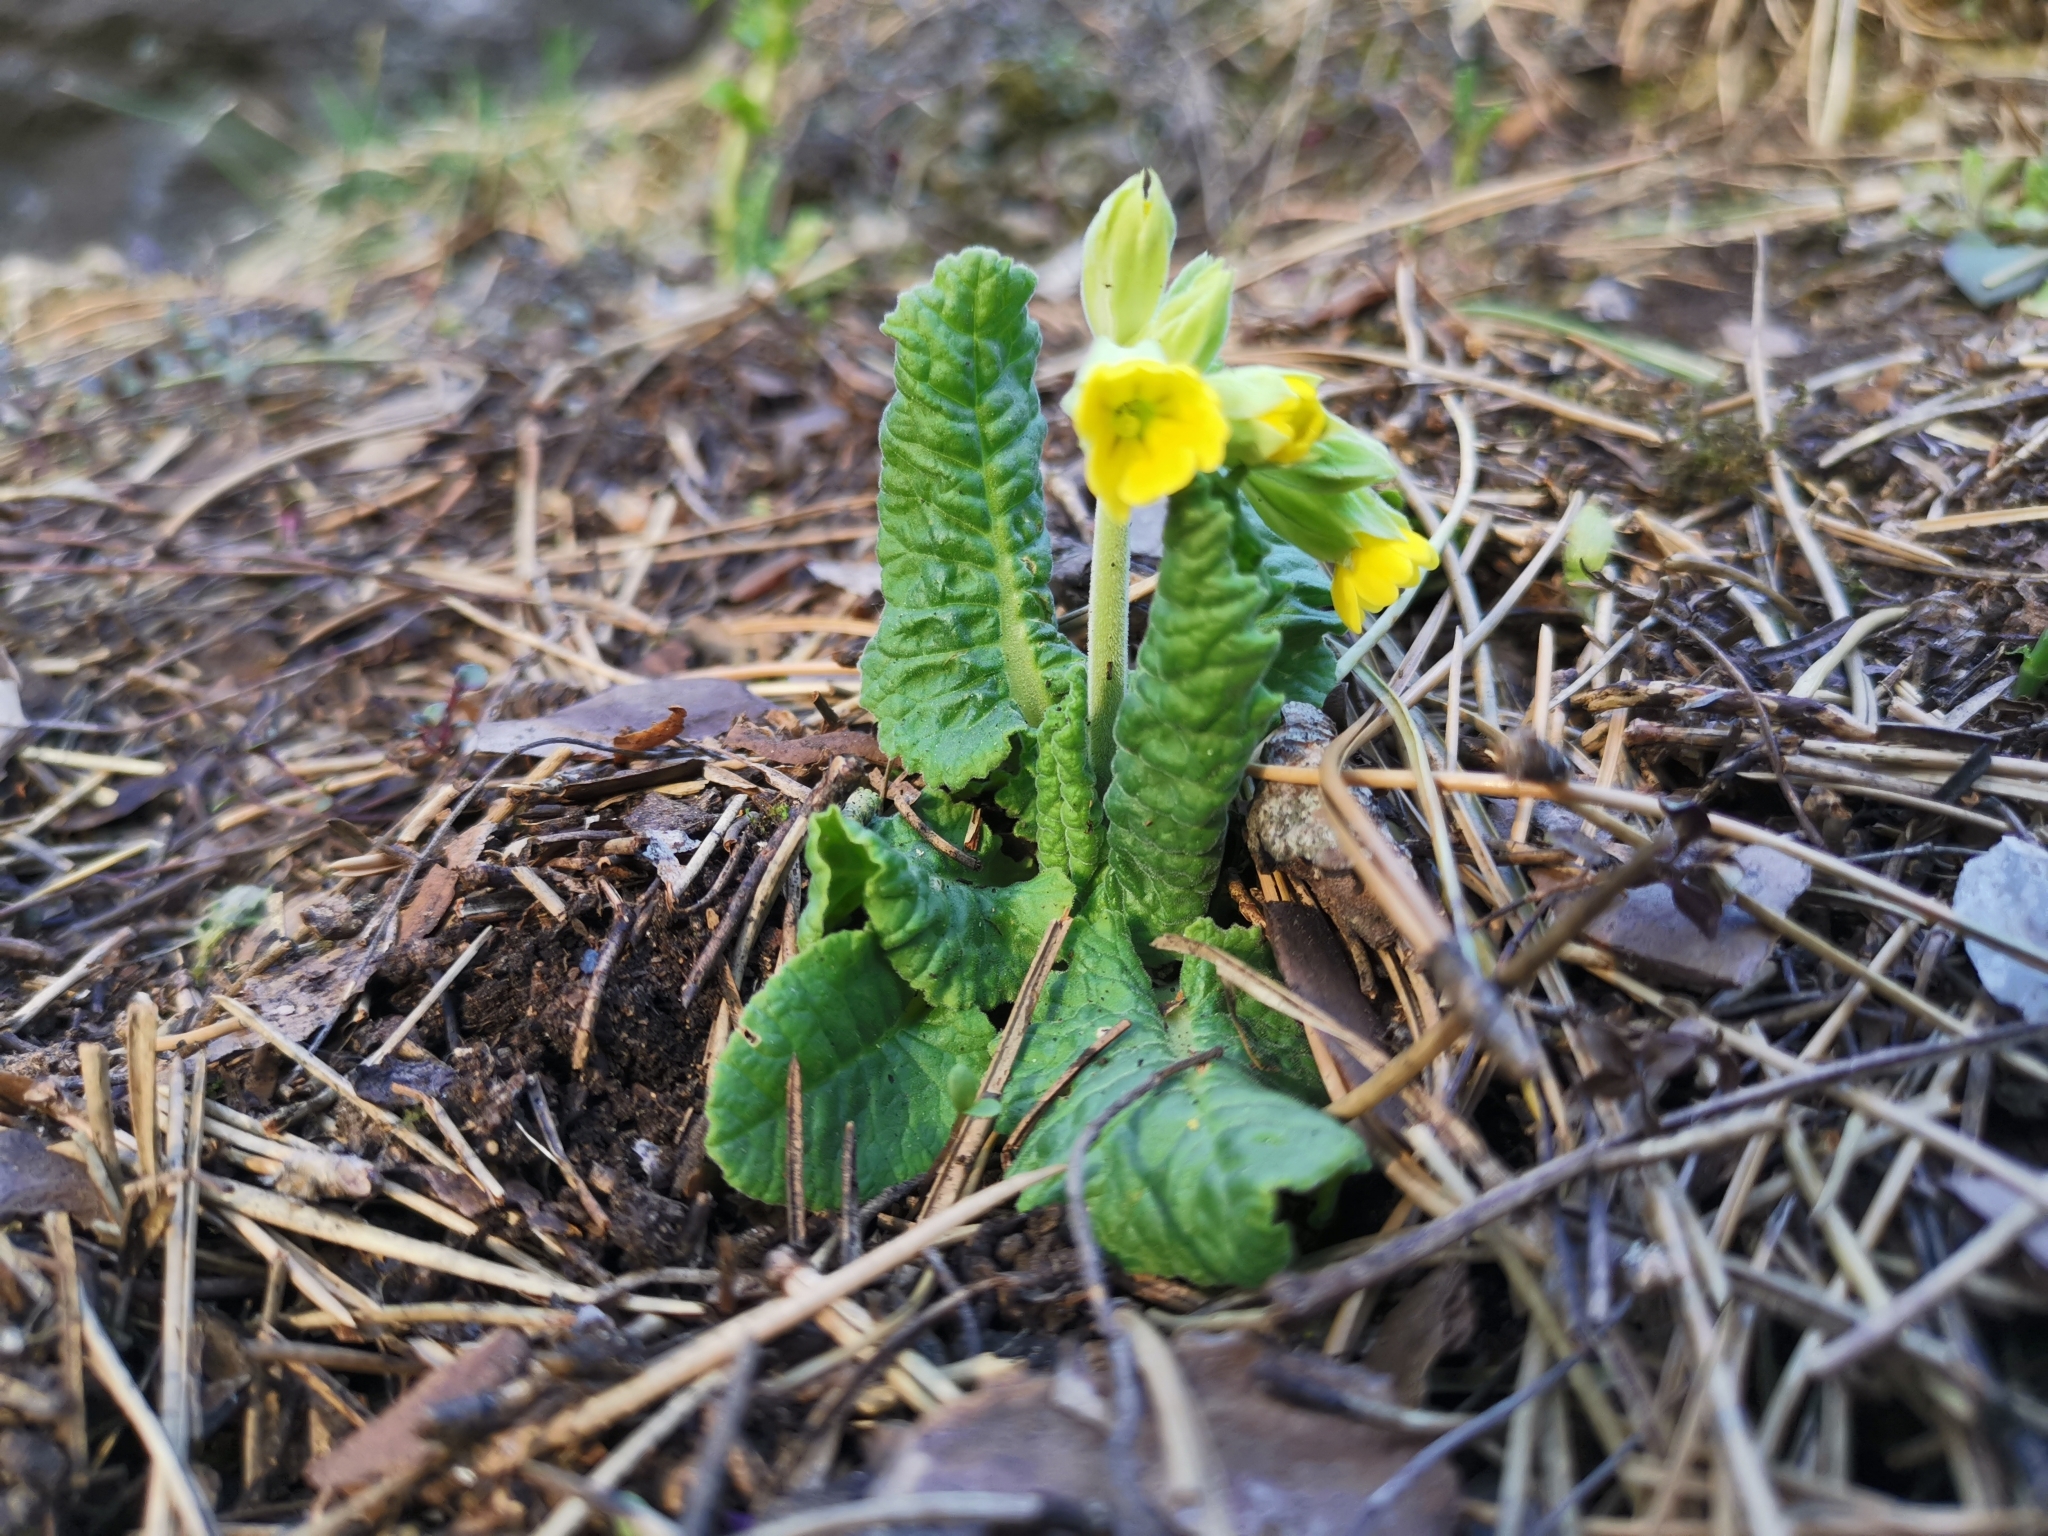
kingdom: Plantae
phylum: Tracheophyta
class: Magnoliopsida
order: Ericales
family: Primulaceae
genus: Primula
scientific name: Primula veris
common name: Cowslip
